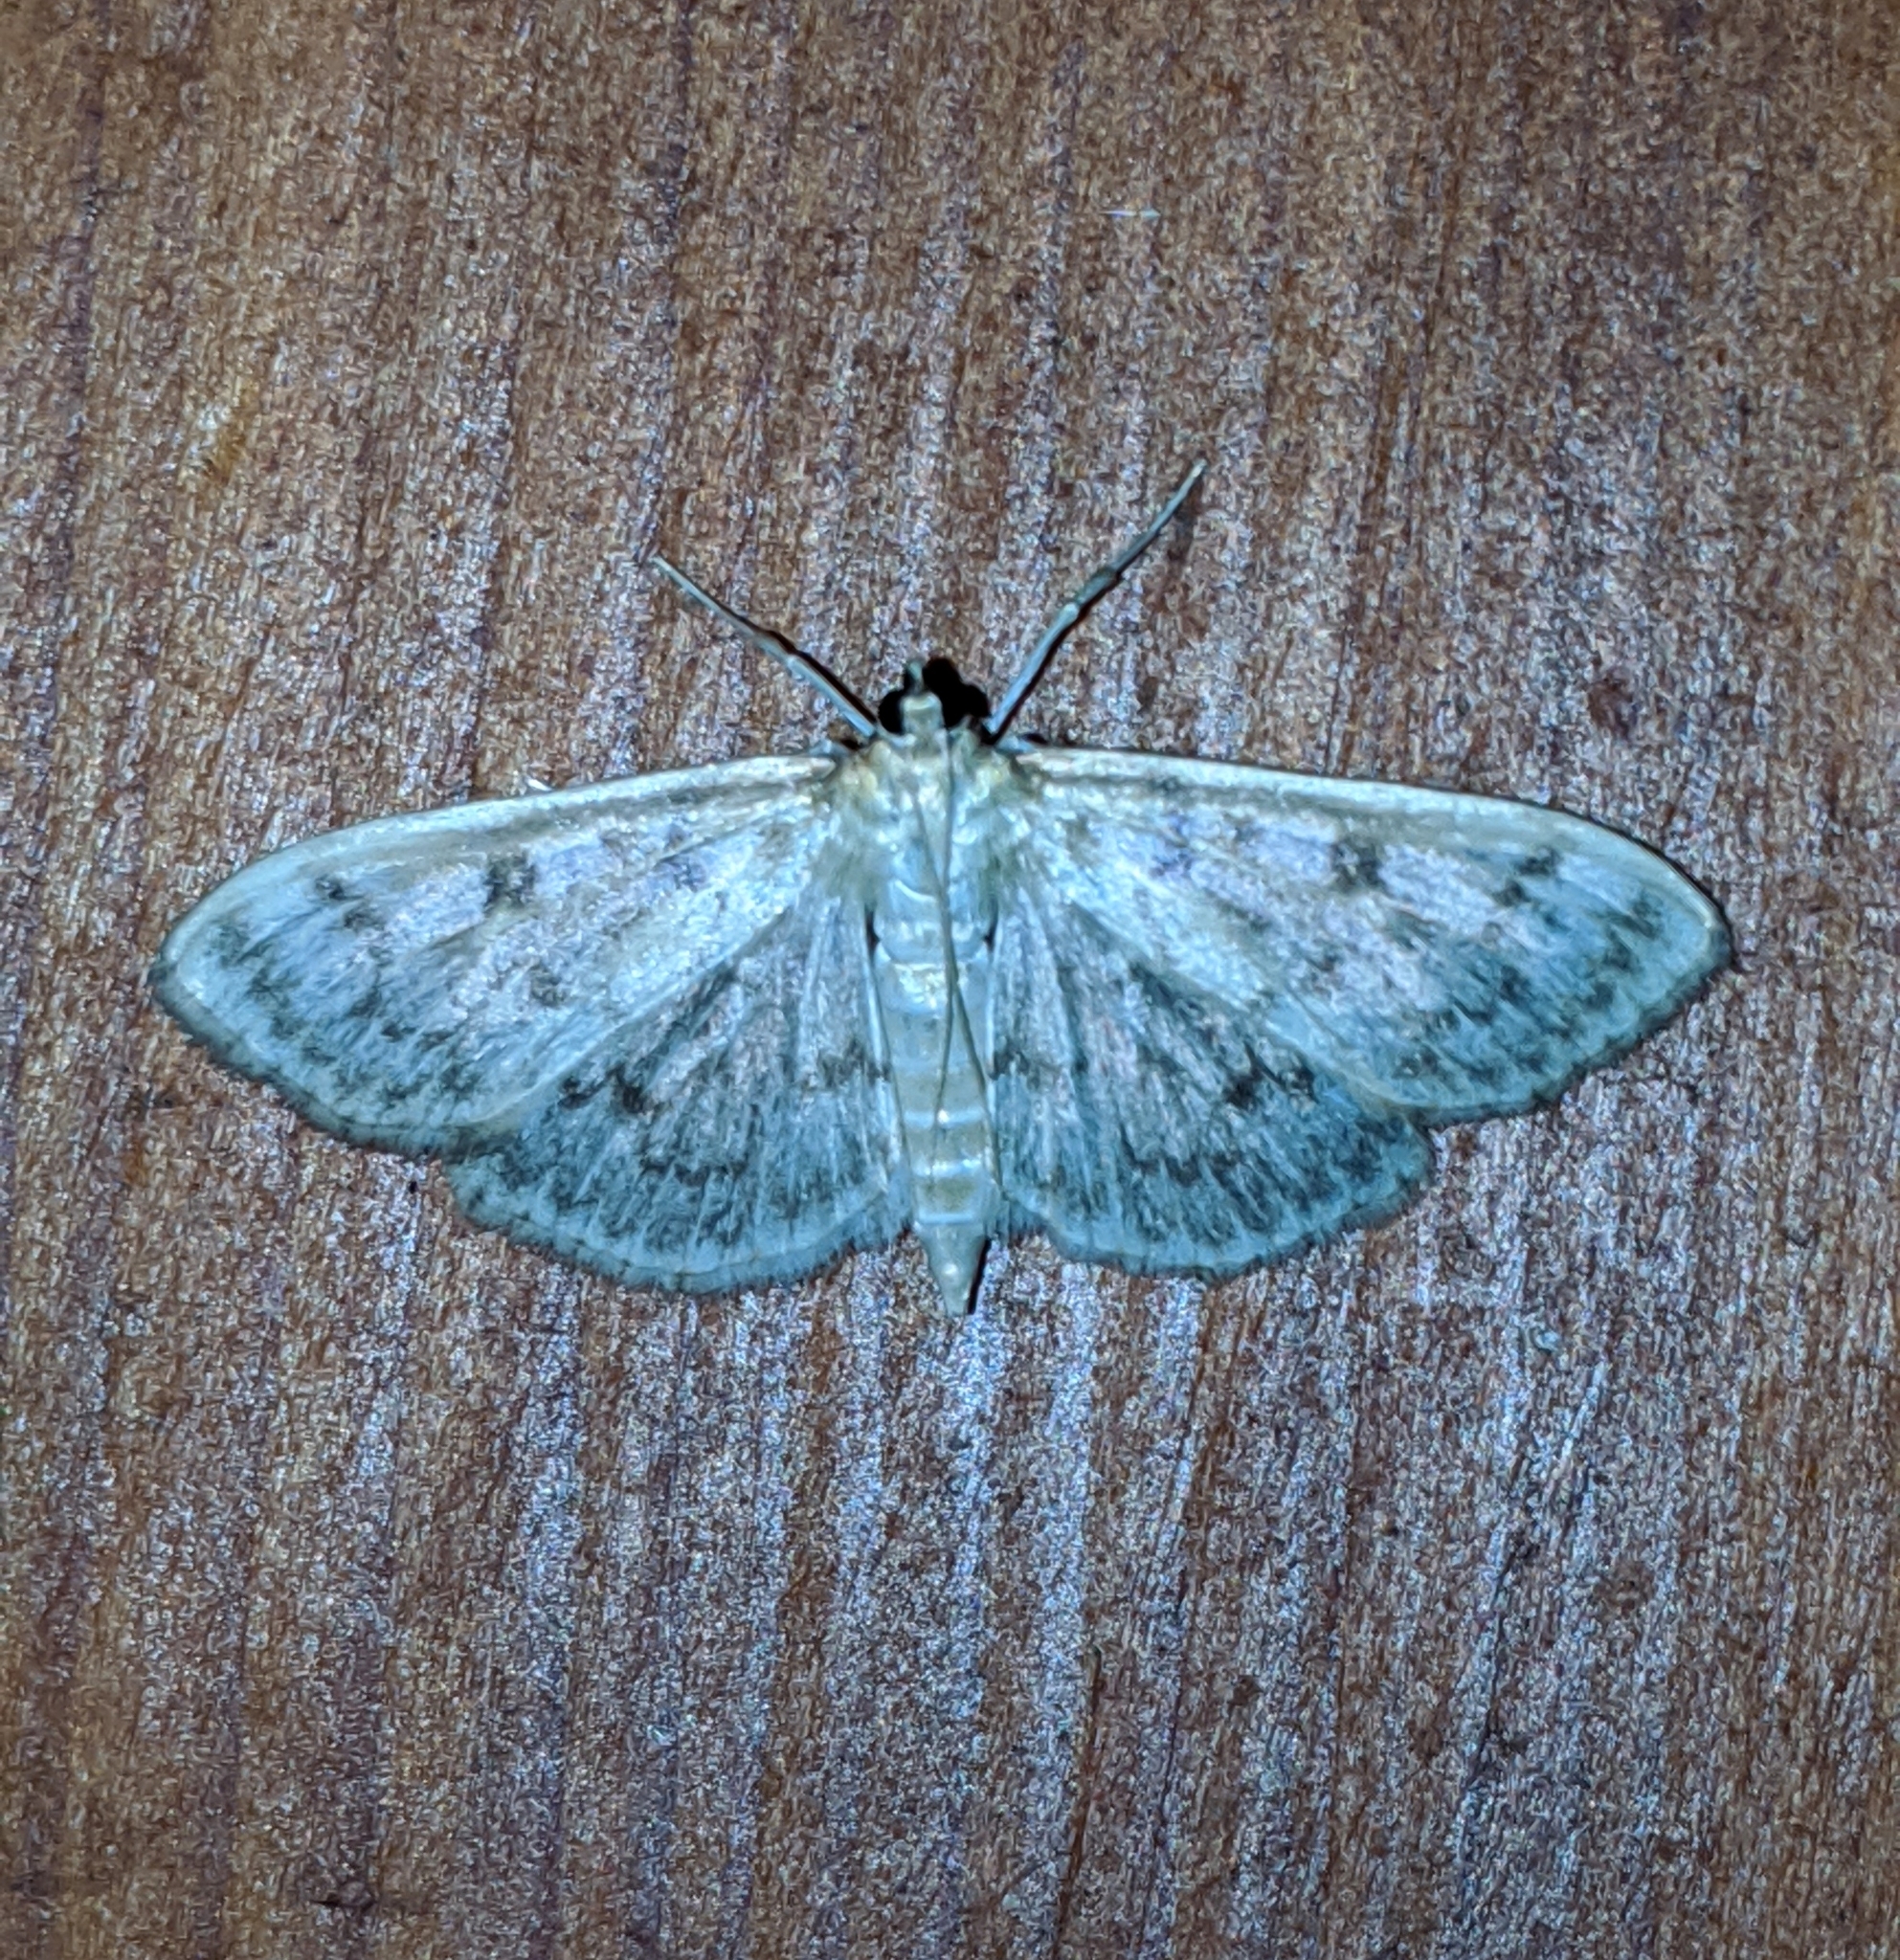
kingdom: Animalia
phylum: Arthropoda
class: Insecta
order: Lepidoptera
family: Crambidae
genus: Herpetogramma
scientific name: Herpetogramma aquilonalis
